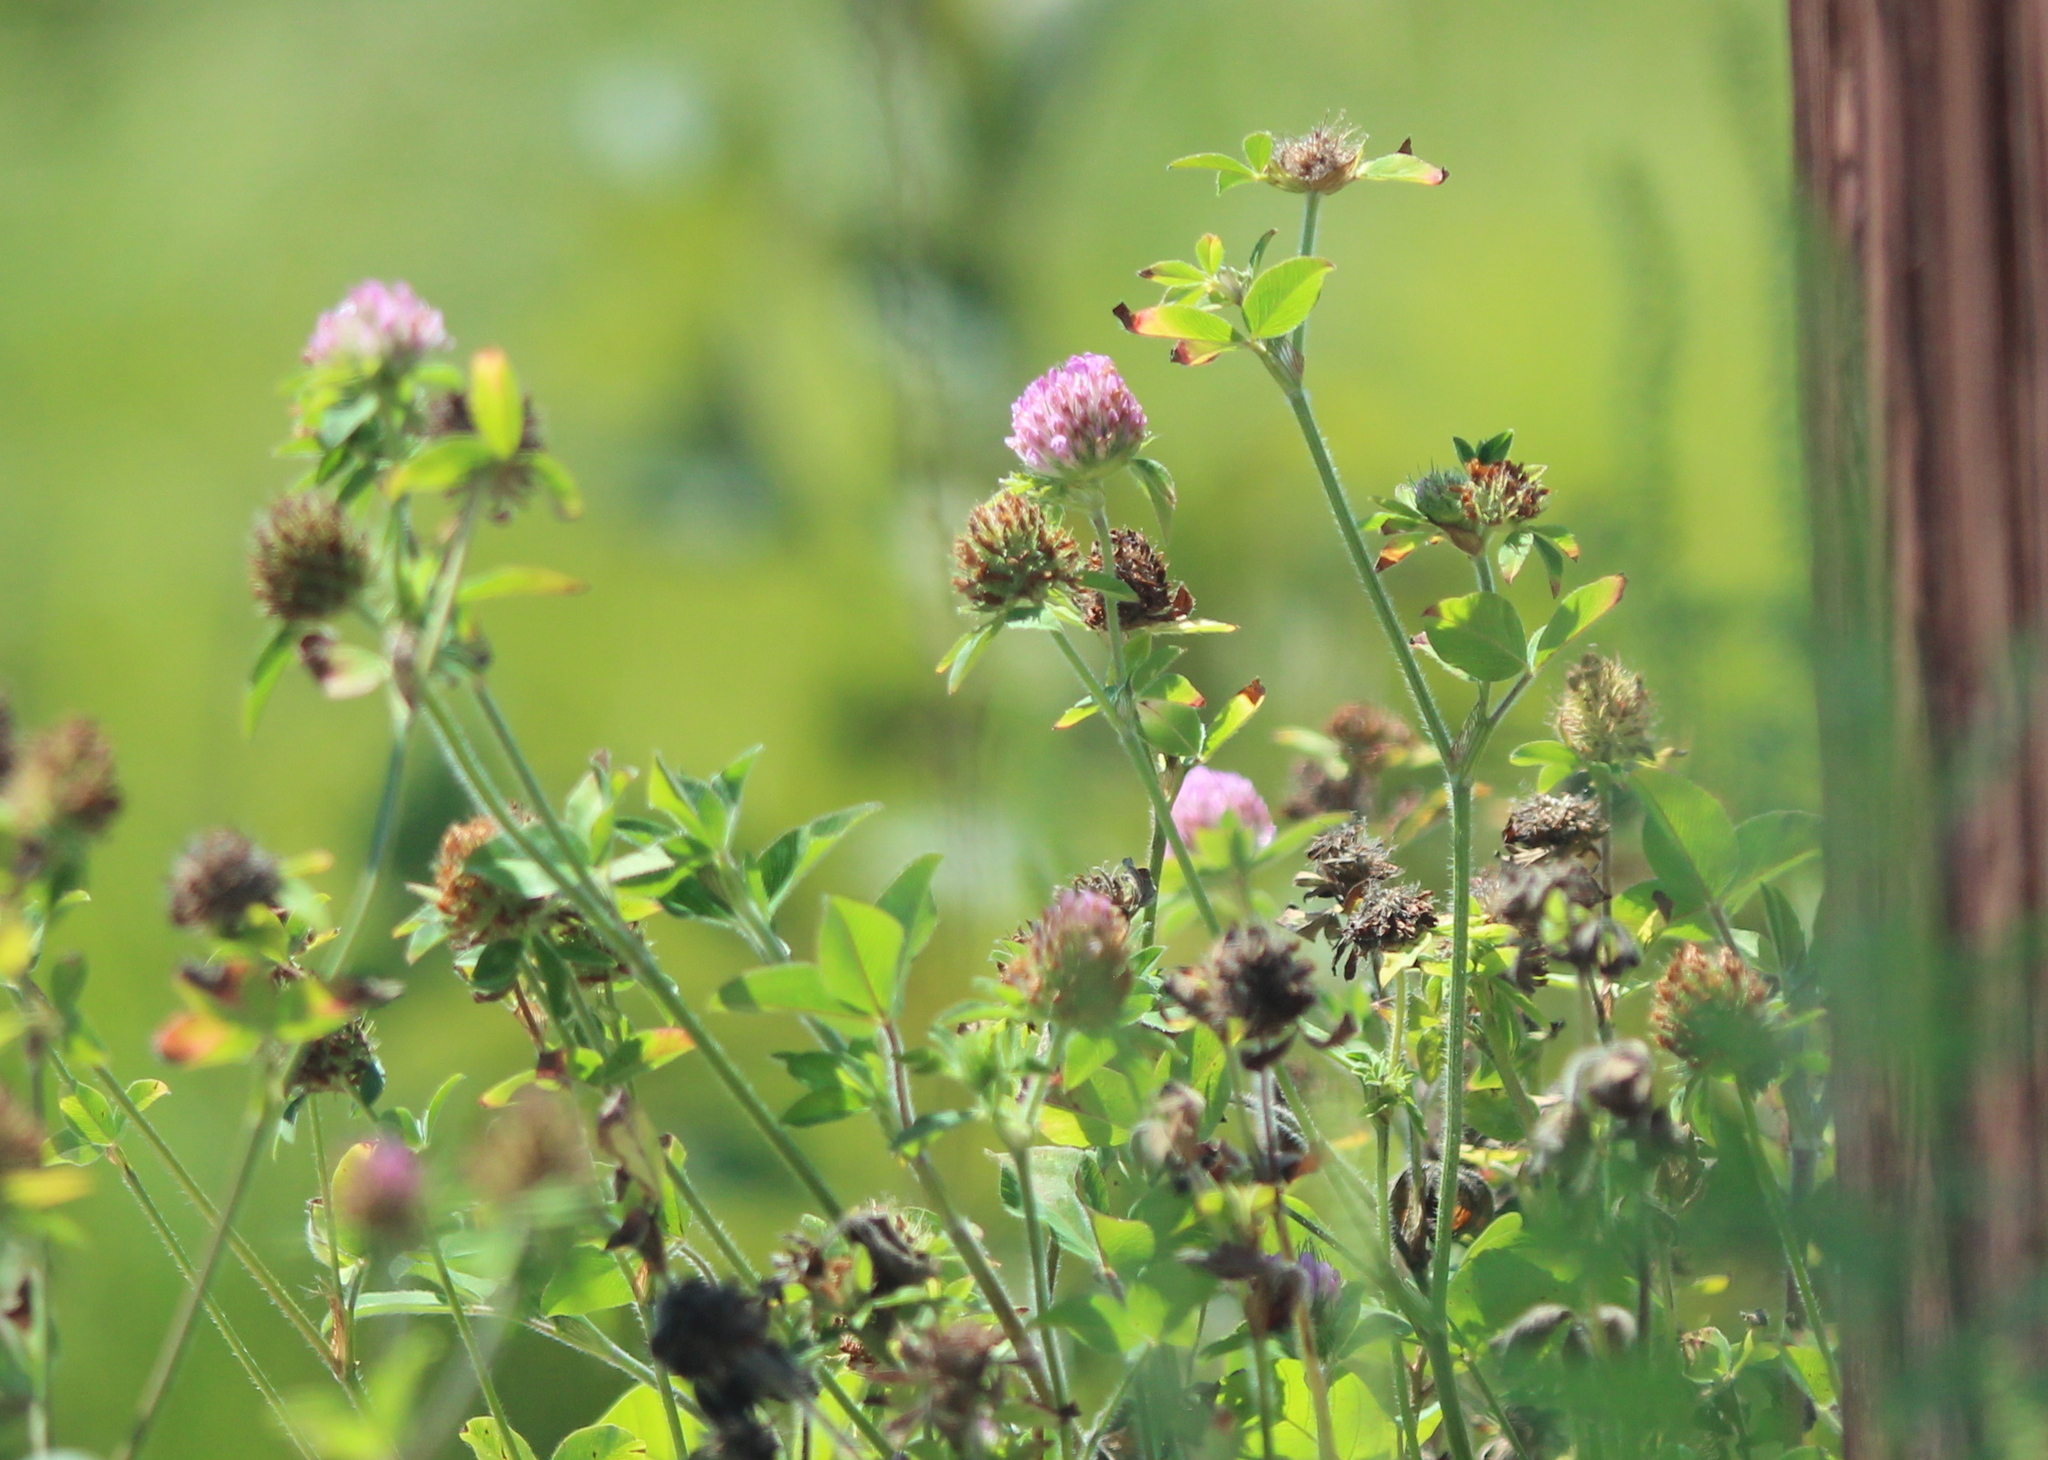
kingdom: Plantae
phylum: Tracheophyta
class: Magnoliopsida
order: Fabales
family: Fabaceae
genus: Trifolium
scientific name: Trifolium pratense
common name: Red clover
